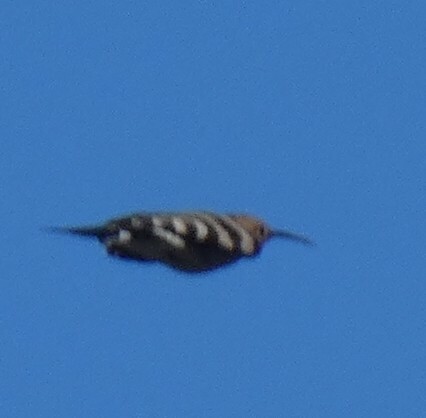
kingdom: Animalia
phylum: Chordata
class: Aves
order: Bucerotiformes
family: Upupidae
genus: Upupa
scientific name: Upupa epops
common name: Eurasian hoopoe
